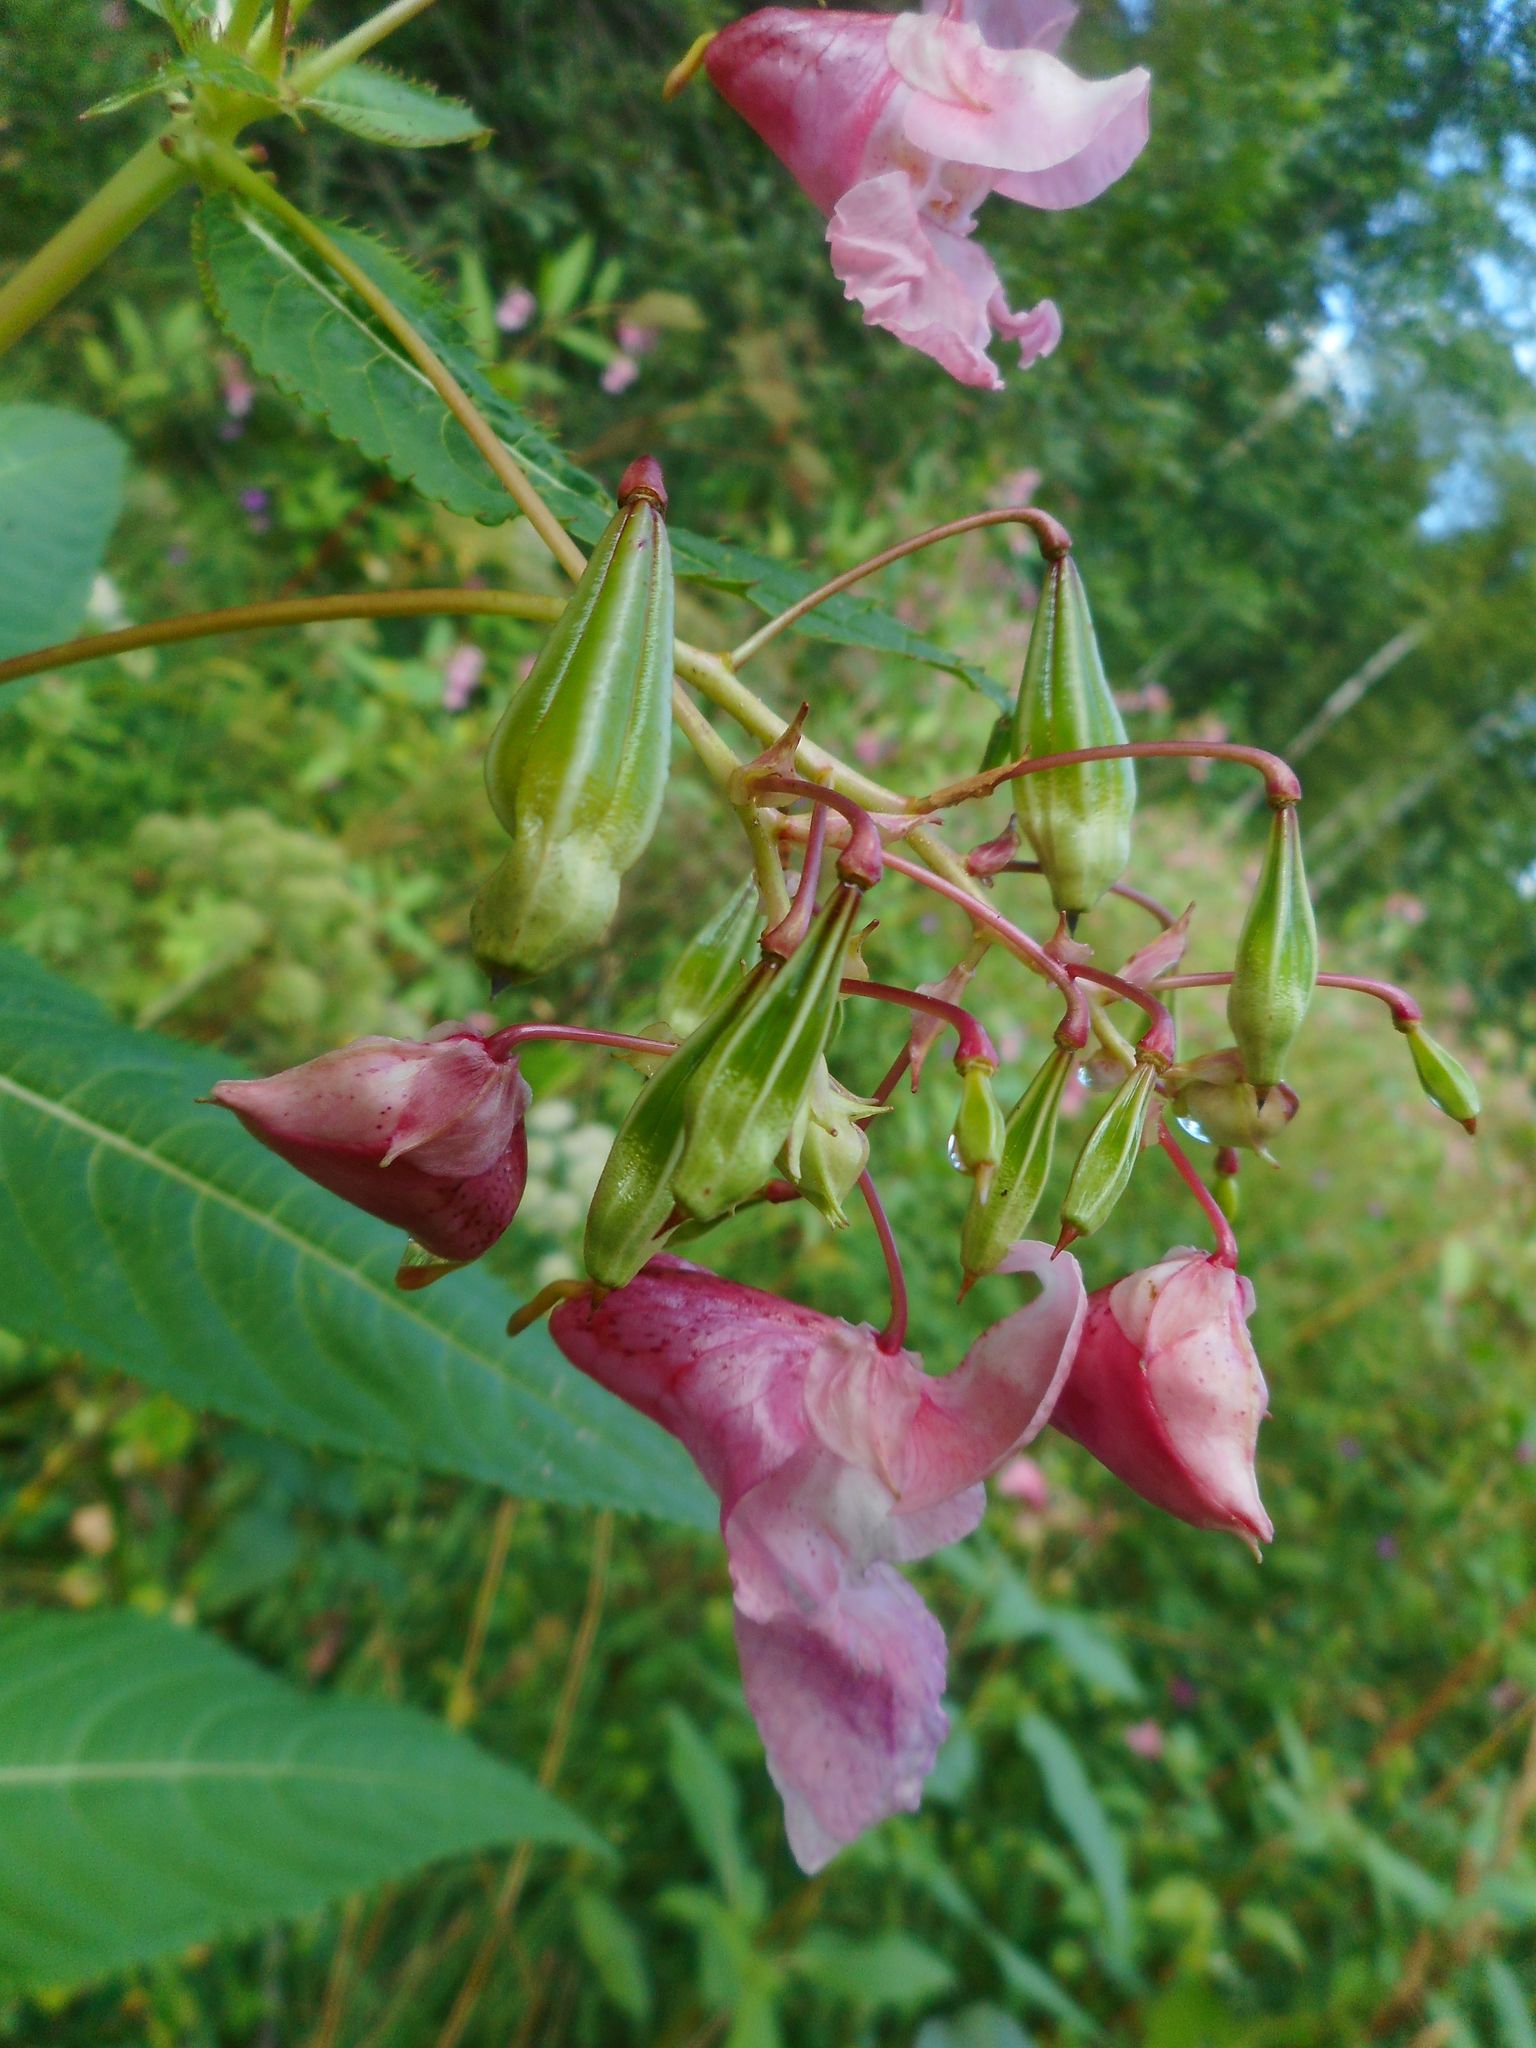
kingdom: Plantae
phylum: Tracheophyta
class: Magnoliopsida
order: Ericales
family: Balsaminaceae
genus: Impatiens
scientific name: Impatiens glandulifera
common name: Himalayan balsam
